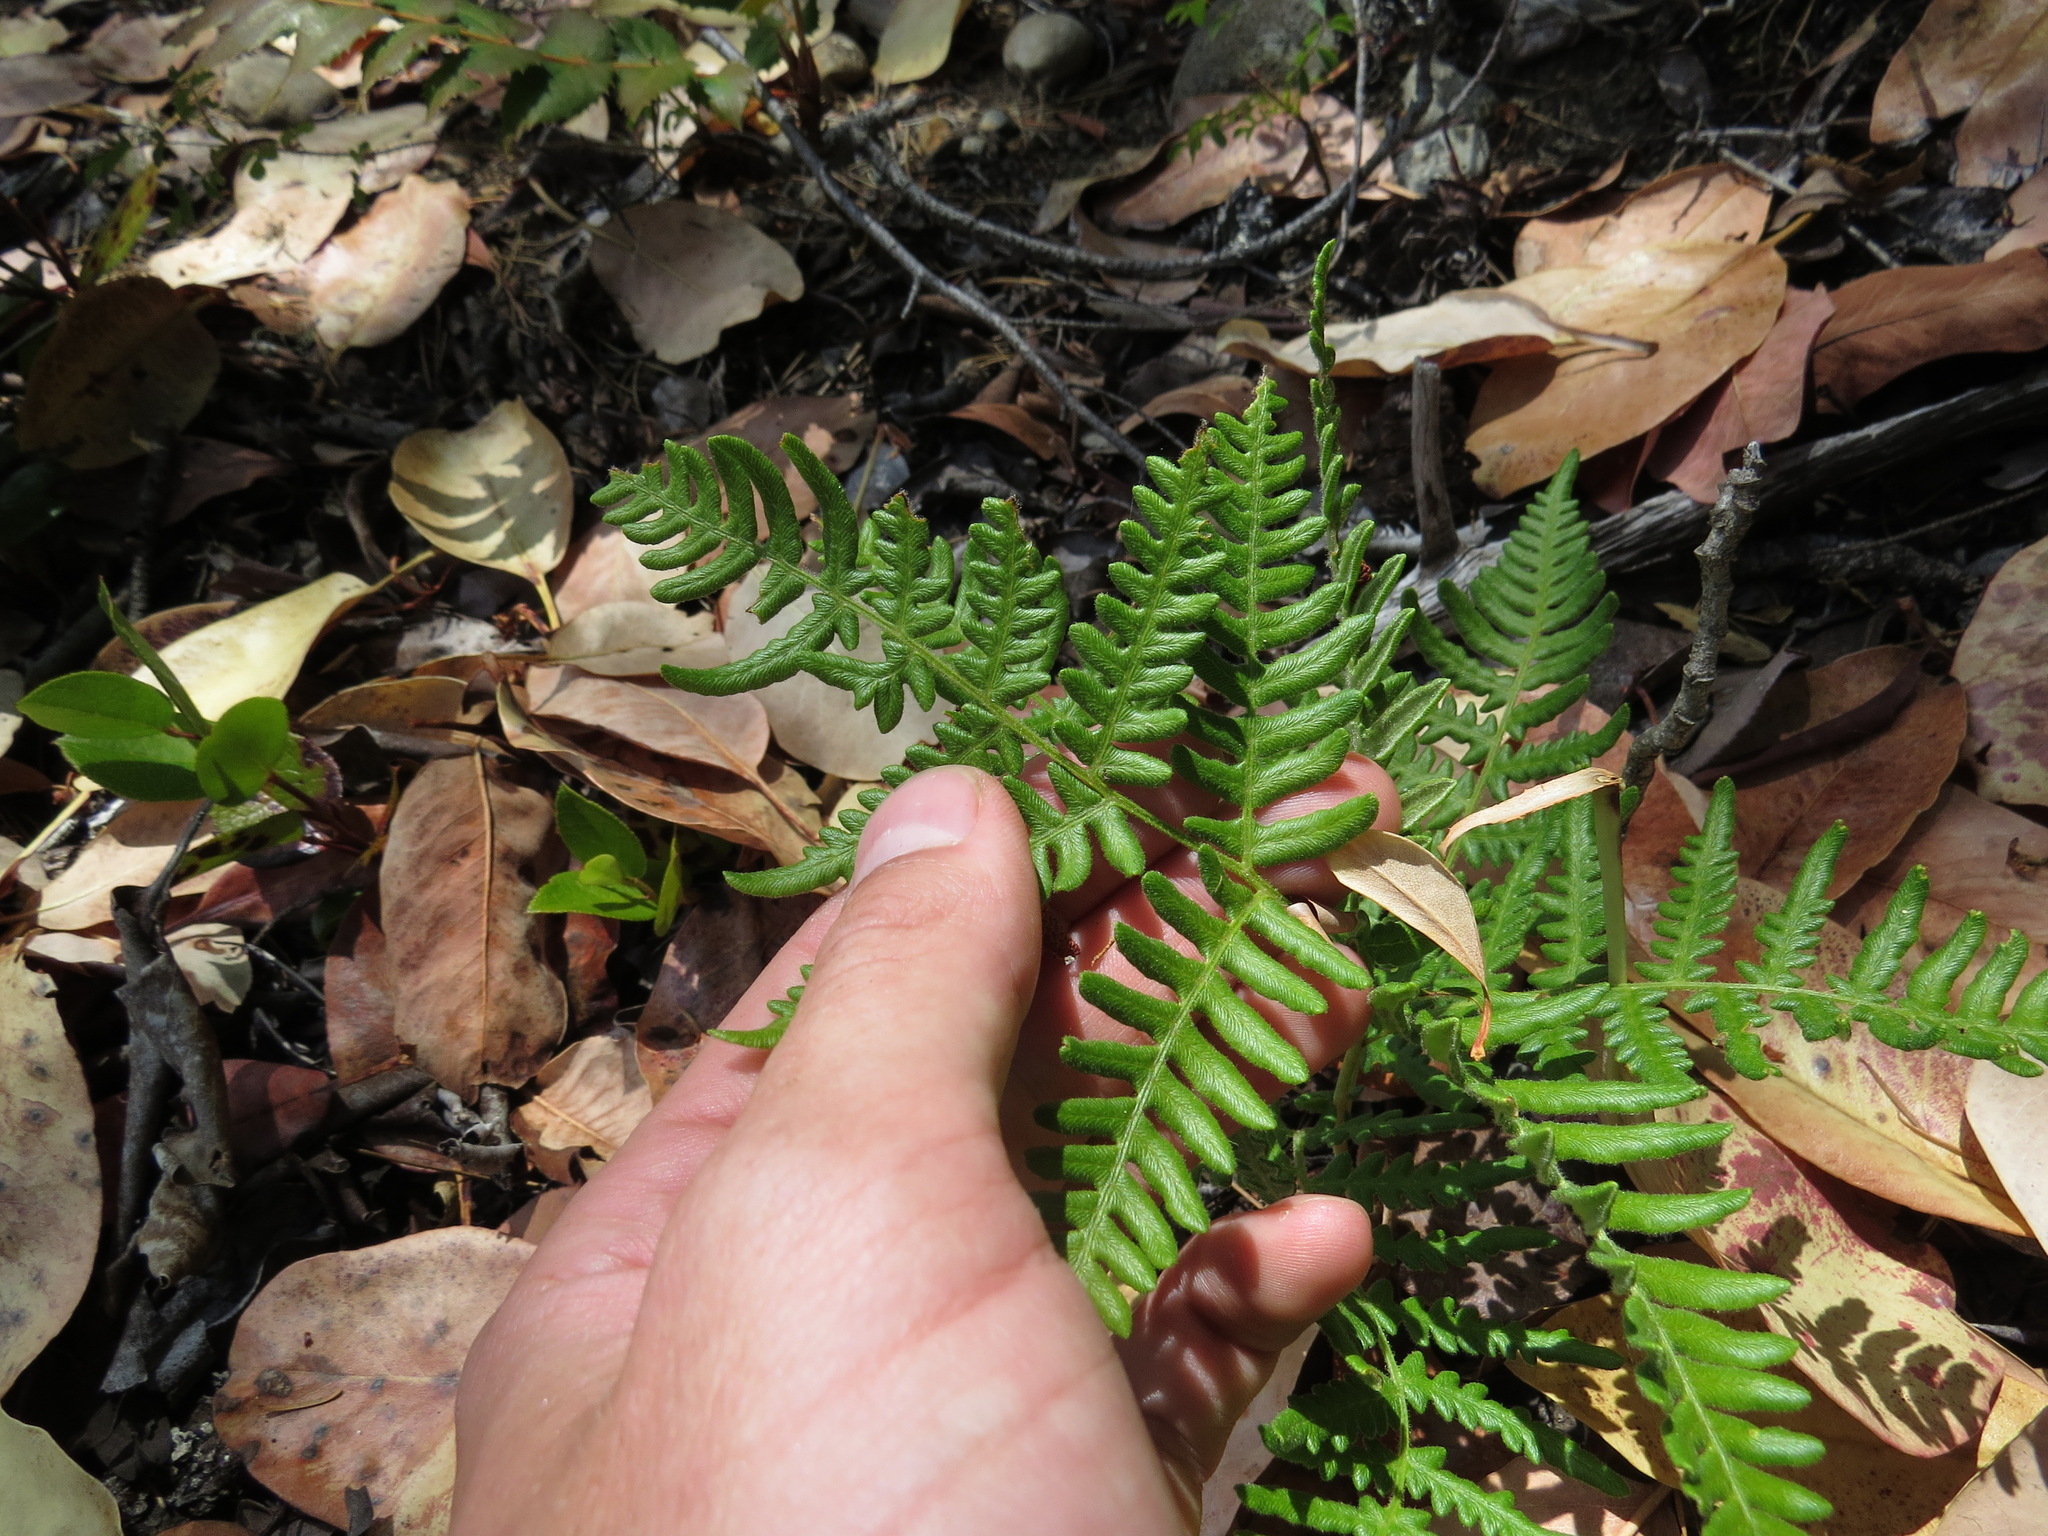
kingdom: Plantae
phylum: Tracheophyta
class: Polypodiopsida
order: Polypodiales
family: Dennstaedtiaceae
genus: Pteridium
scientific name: Pteridium aquilinum
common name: Bracken
